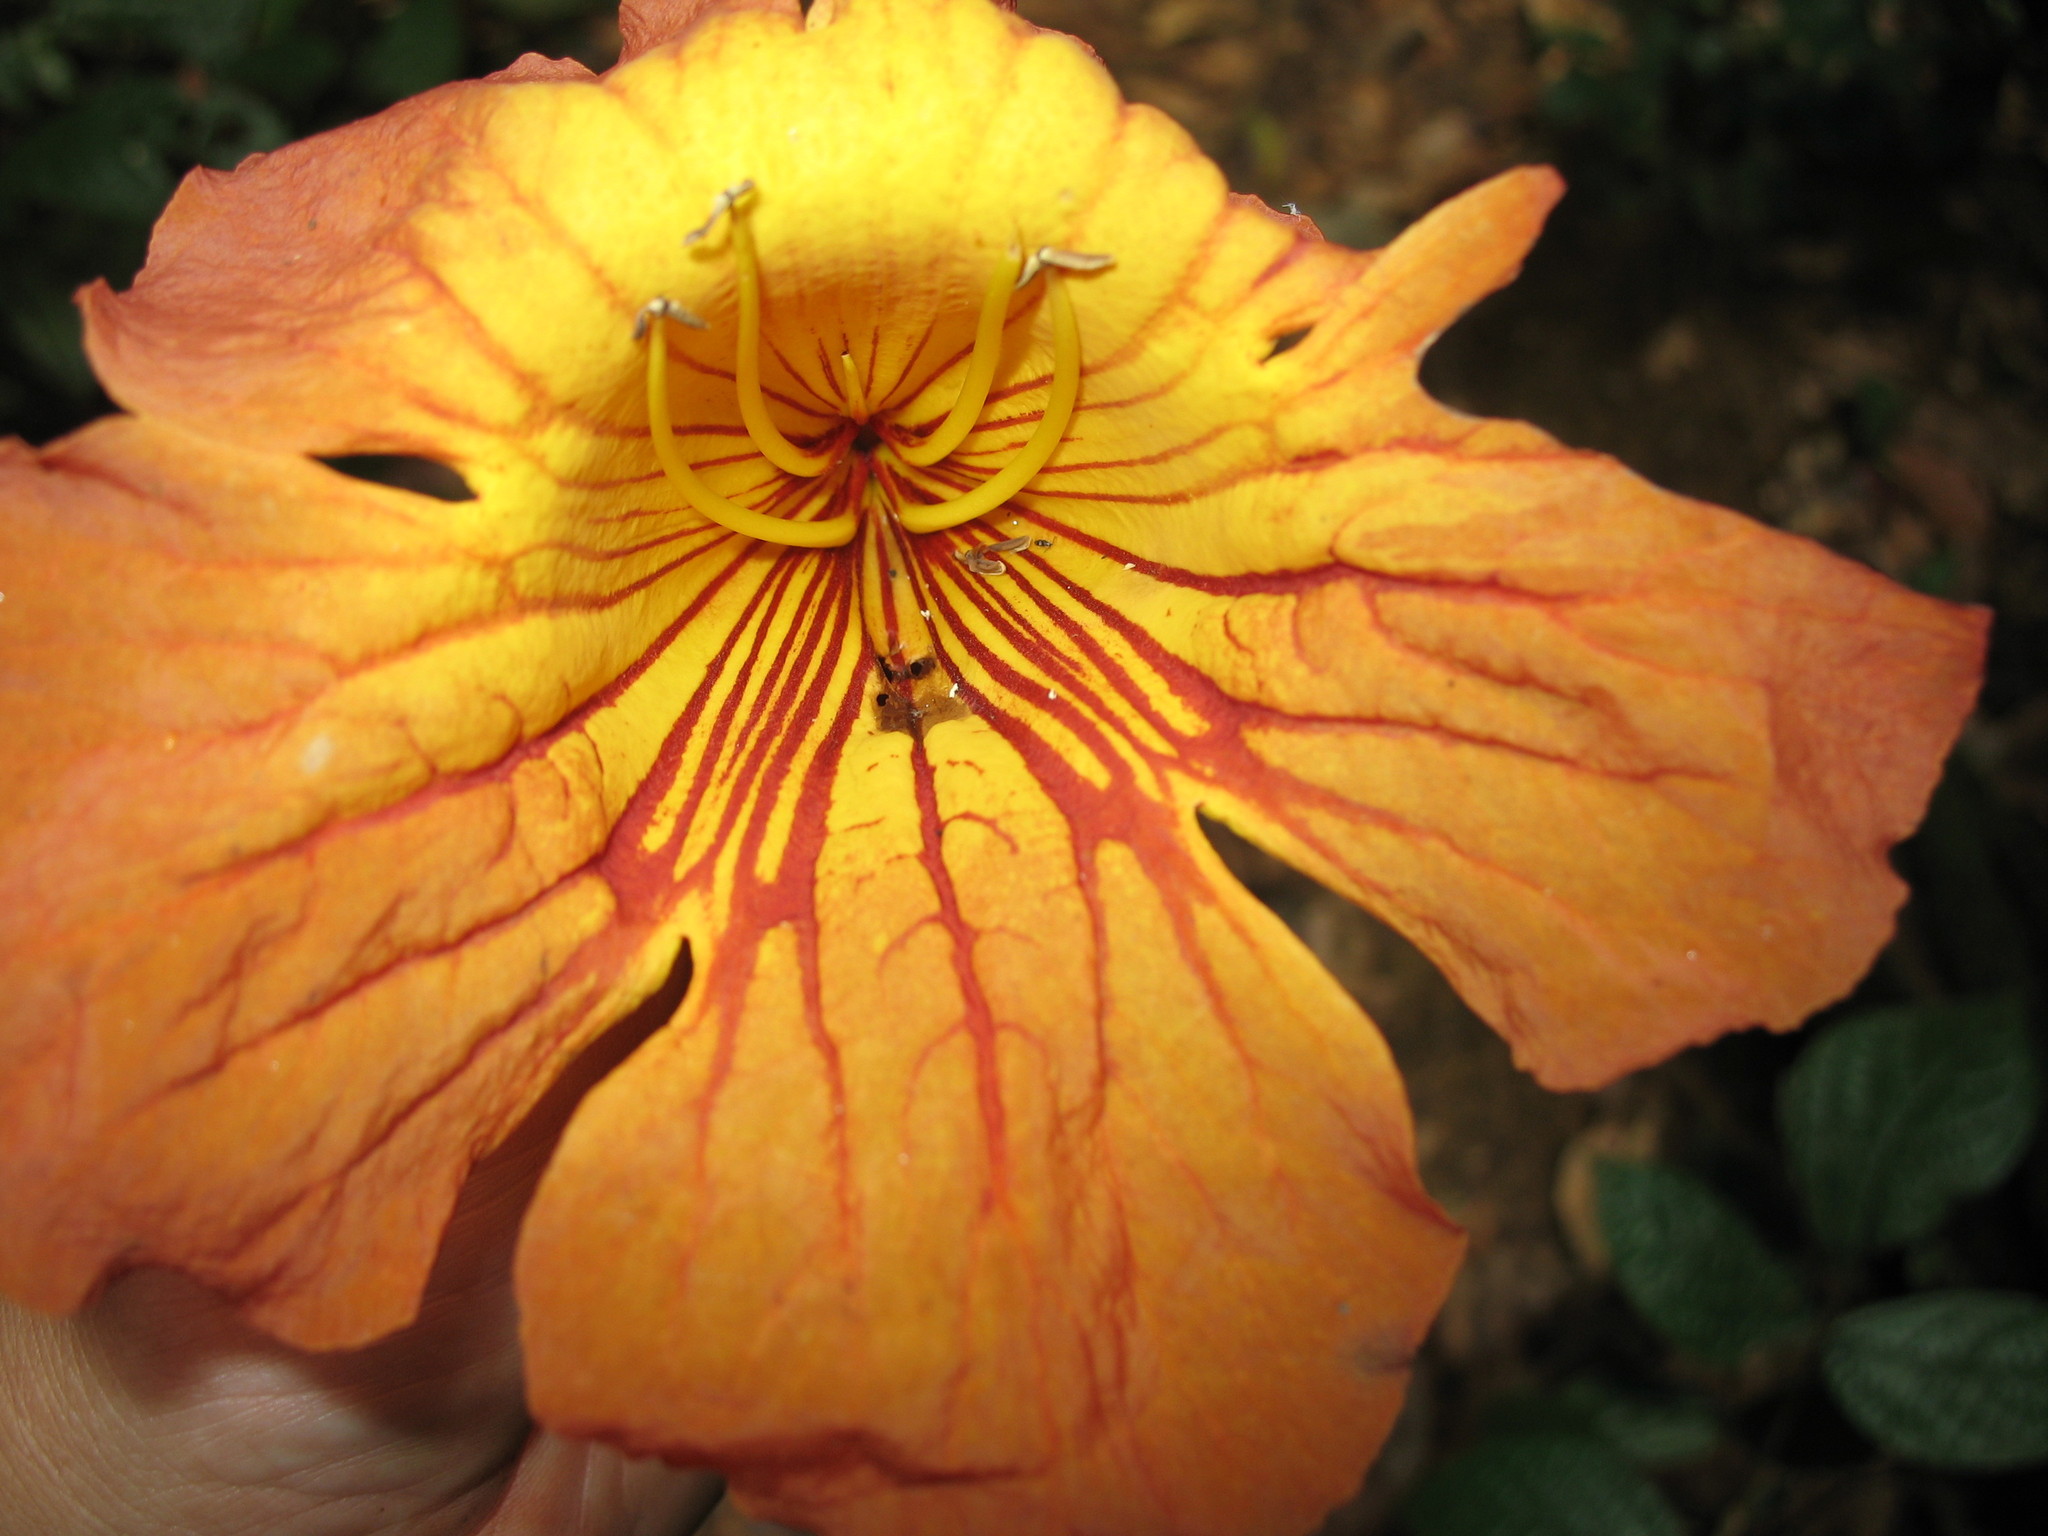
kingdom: Plantae
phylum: Tracheophyta
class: Magnoliopsida
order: Lamiales
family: Bignoniaceae
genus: Markhamia
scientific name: Markhamia tomentosa
